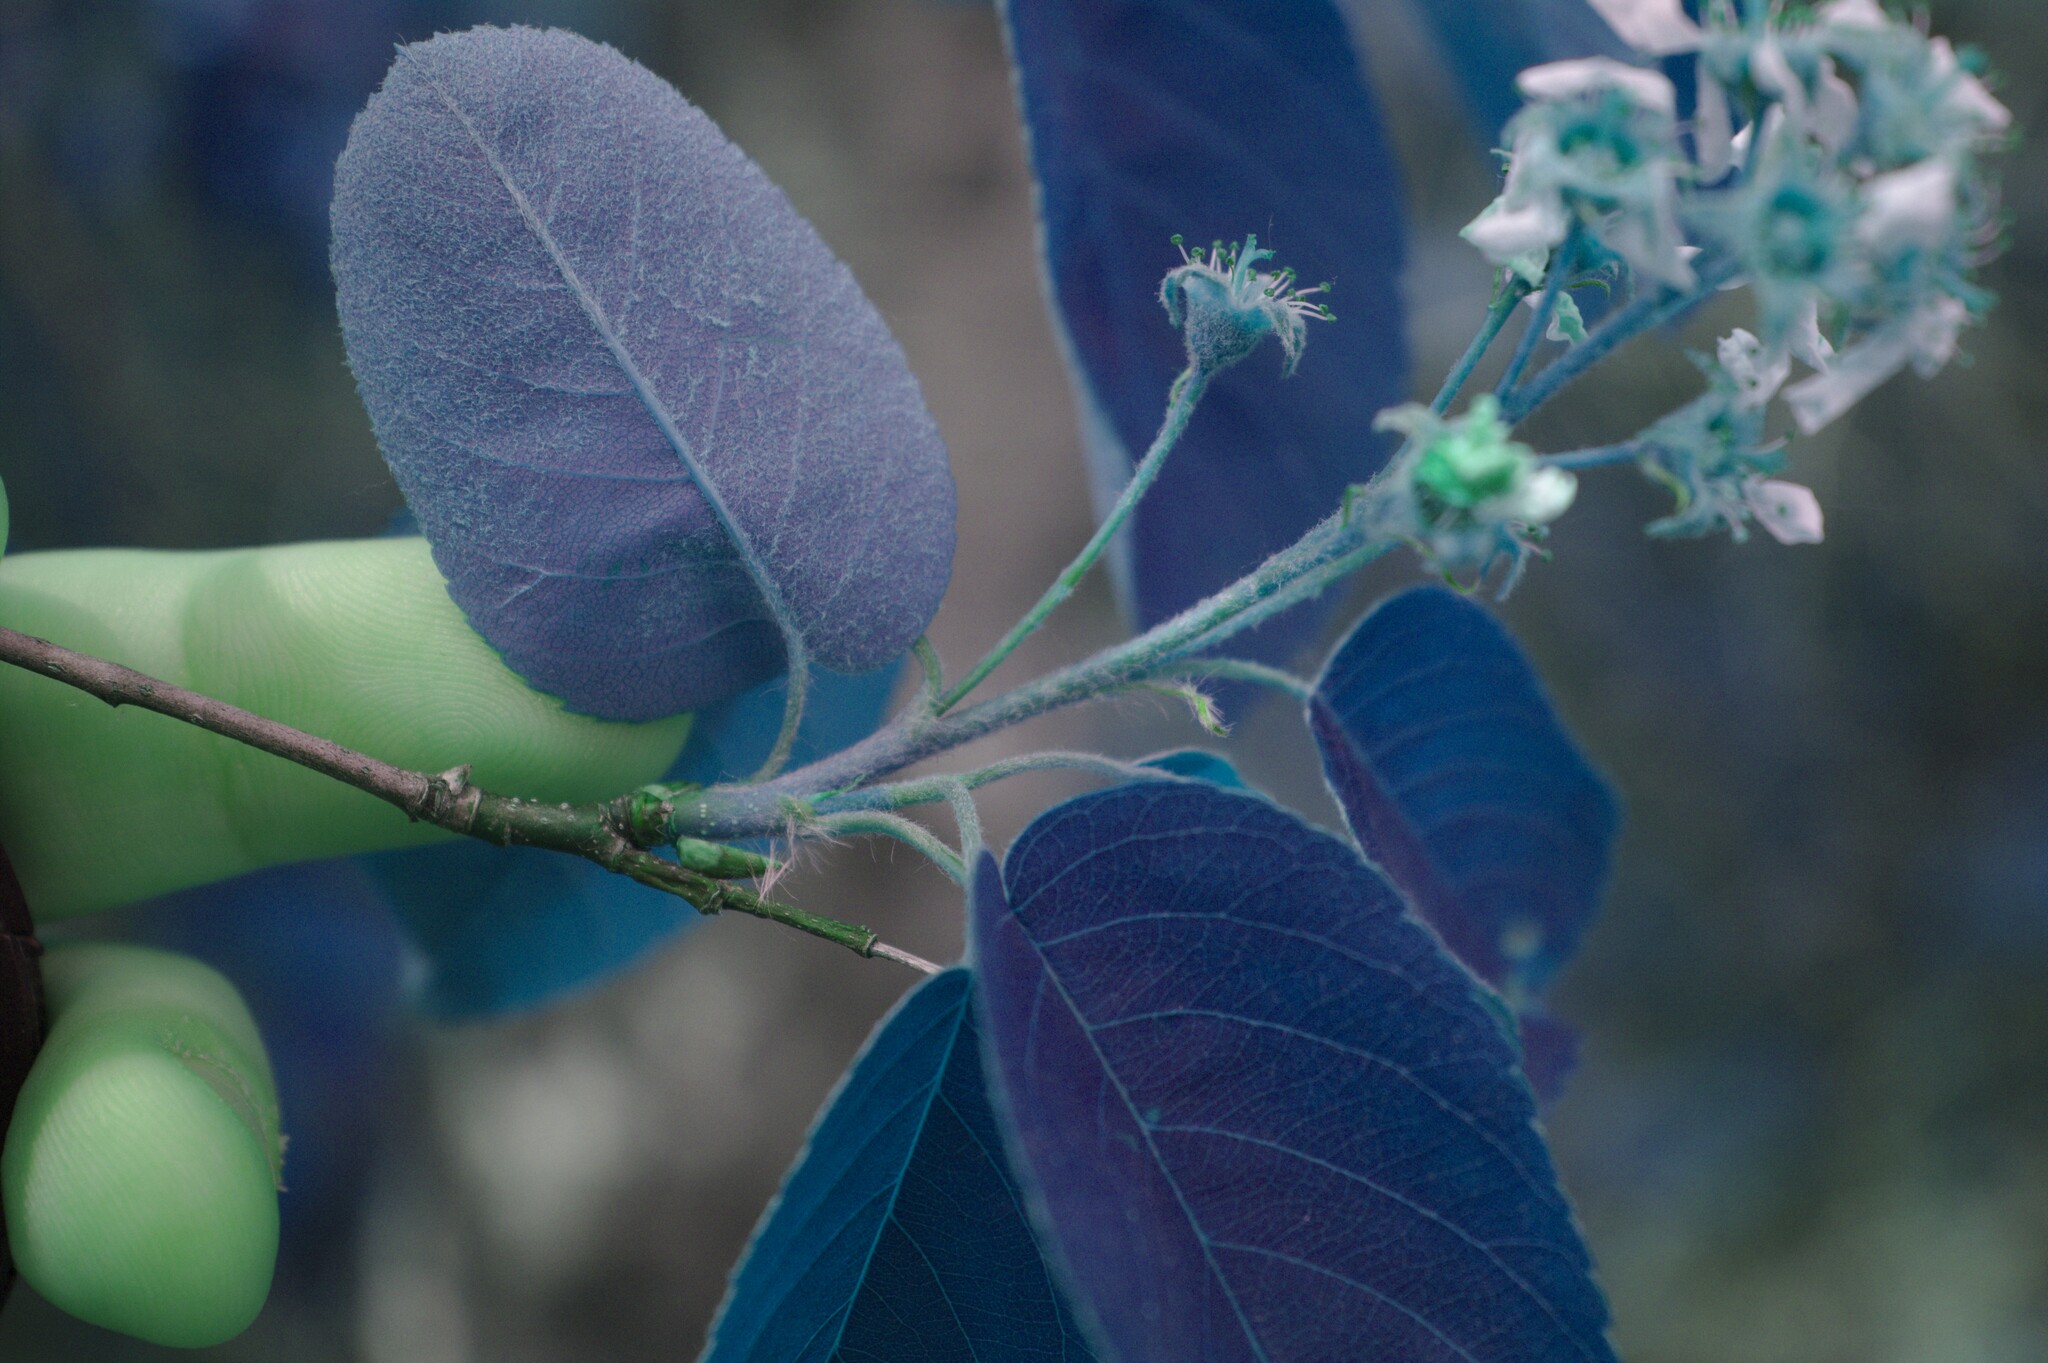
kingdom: Plantae
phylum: Tracheophyta
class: Magnoliopsida
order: Rosales
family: Rosaceae
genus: Amelanchier
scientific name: Amelanchier
